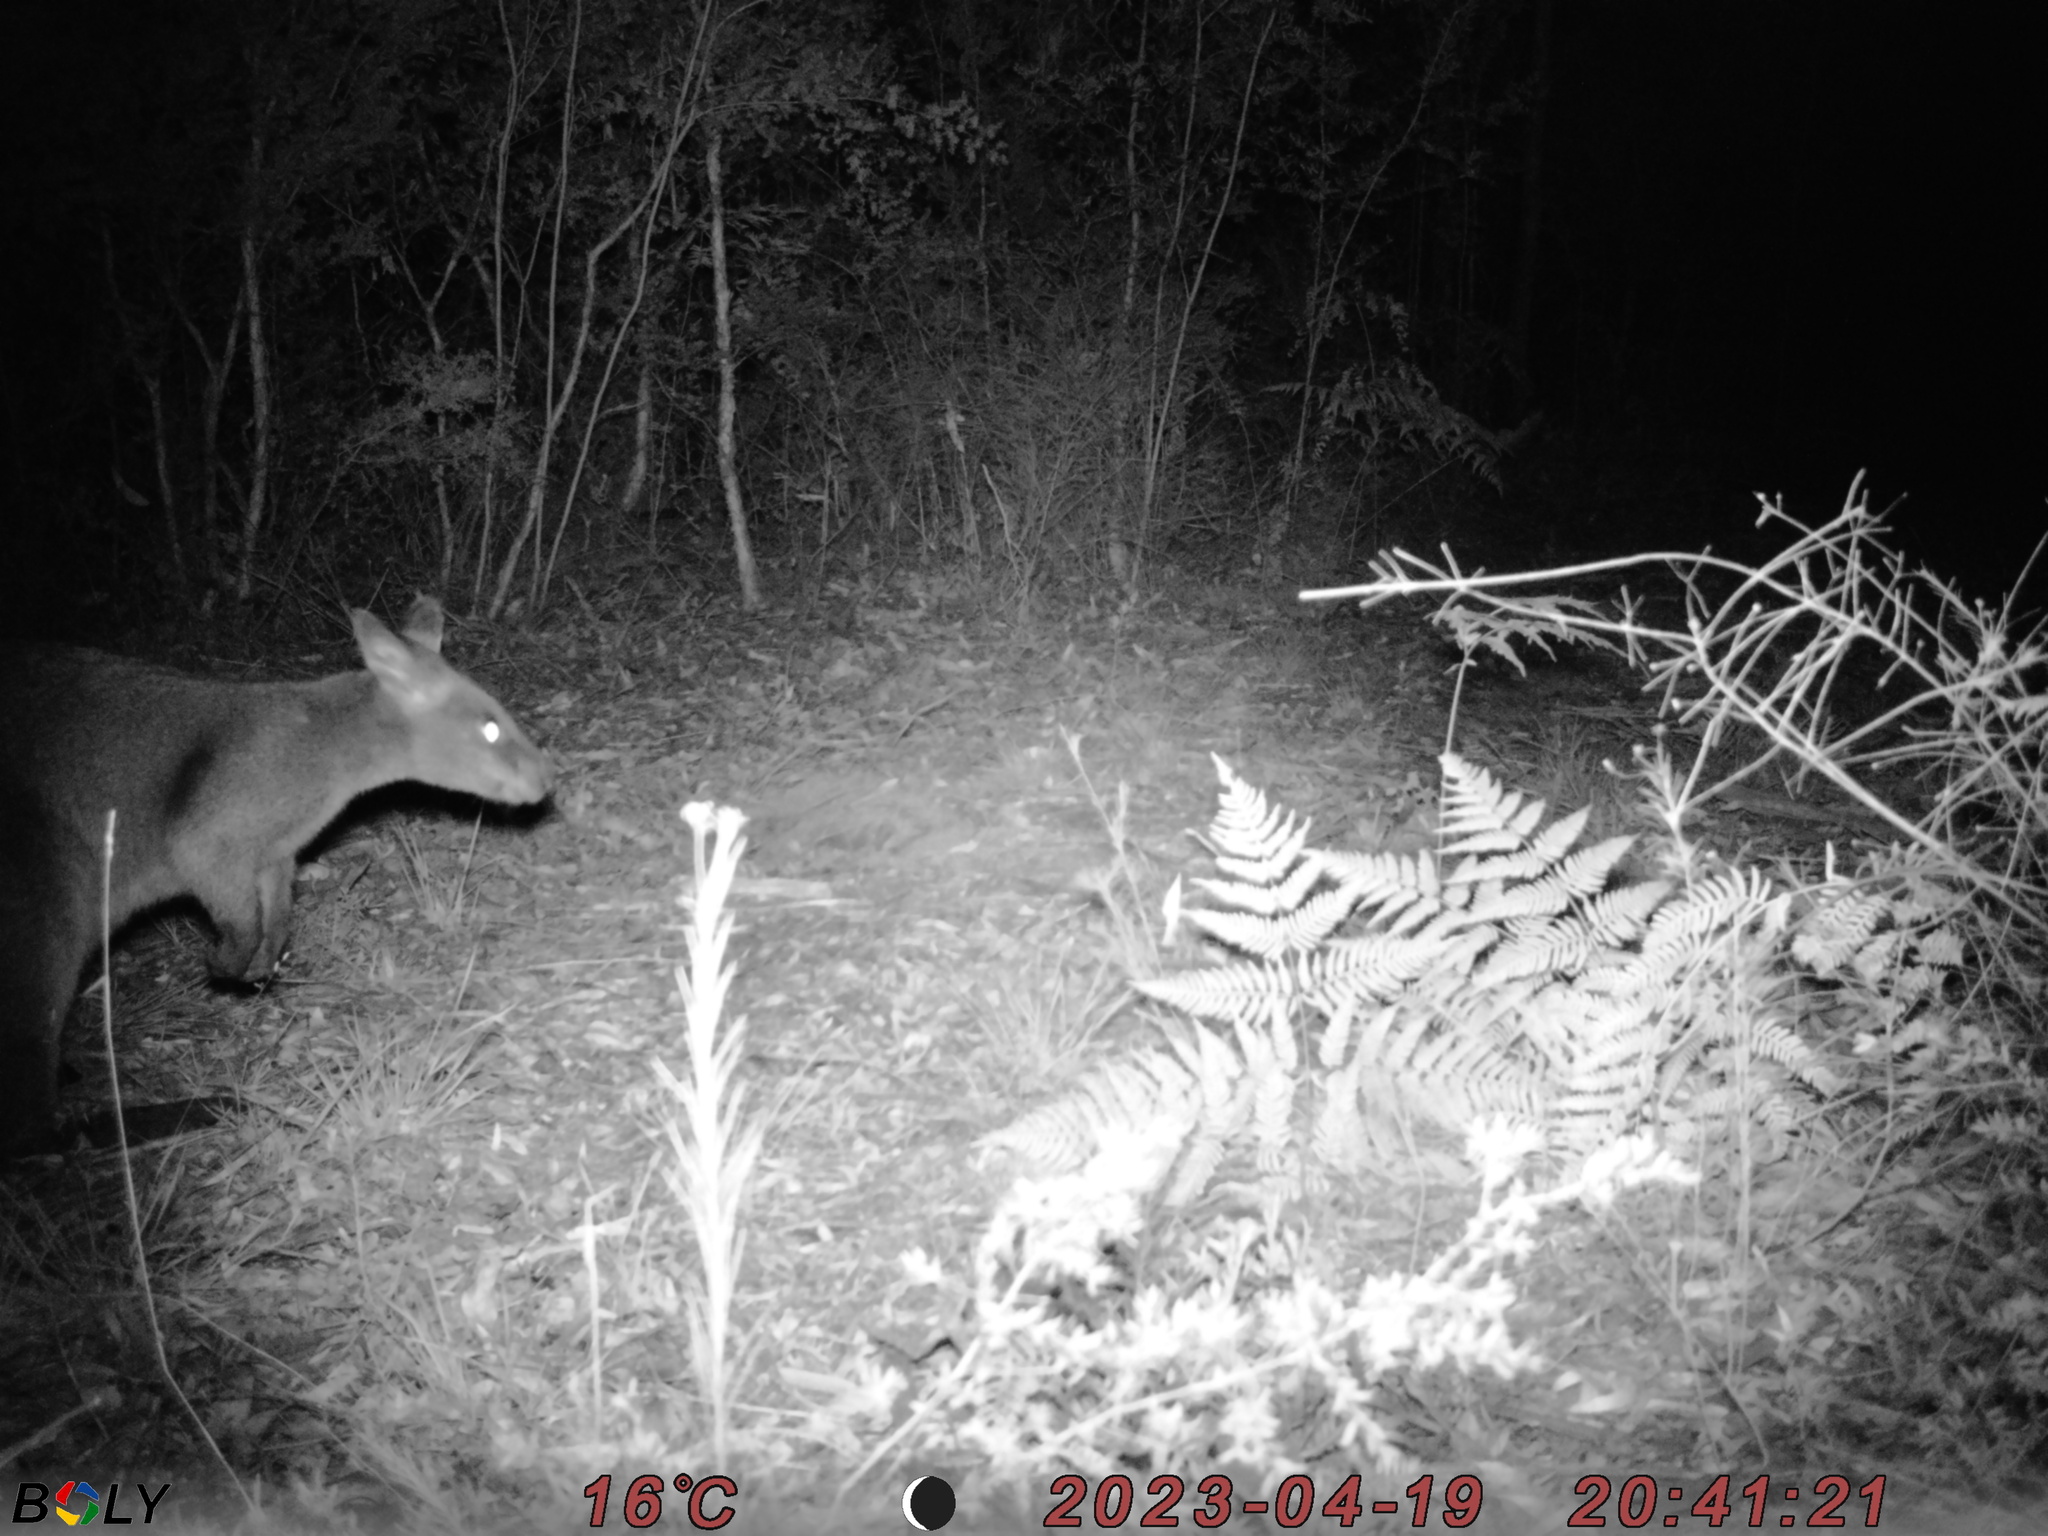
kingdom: Animalia
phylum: Chordata
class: Mammalia
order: Diprotodontia
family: Macropodidae
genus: Wallabia
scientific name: Wallabia bicolor
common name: Swamp wallaby
